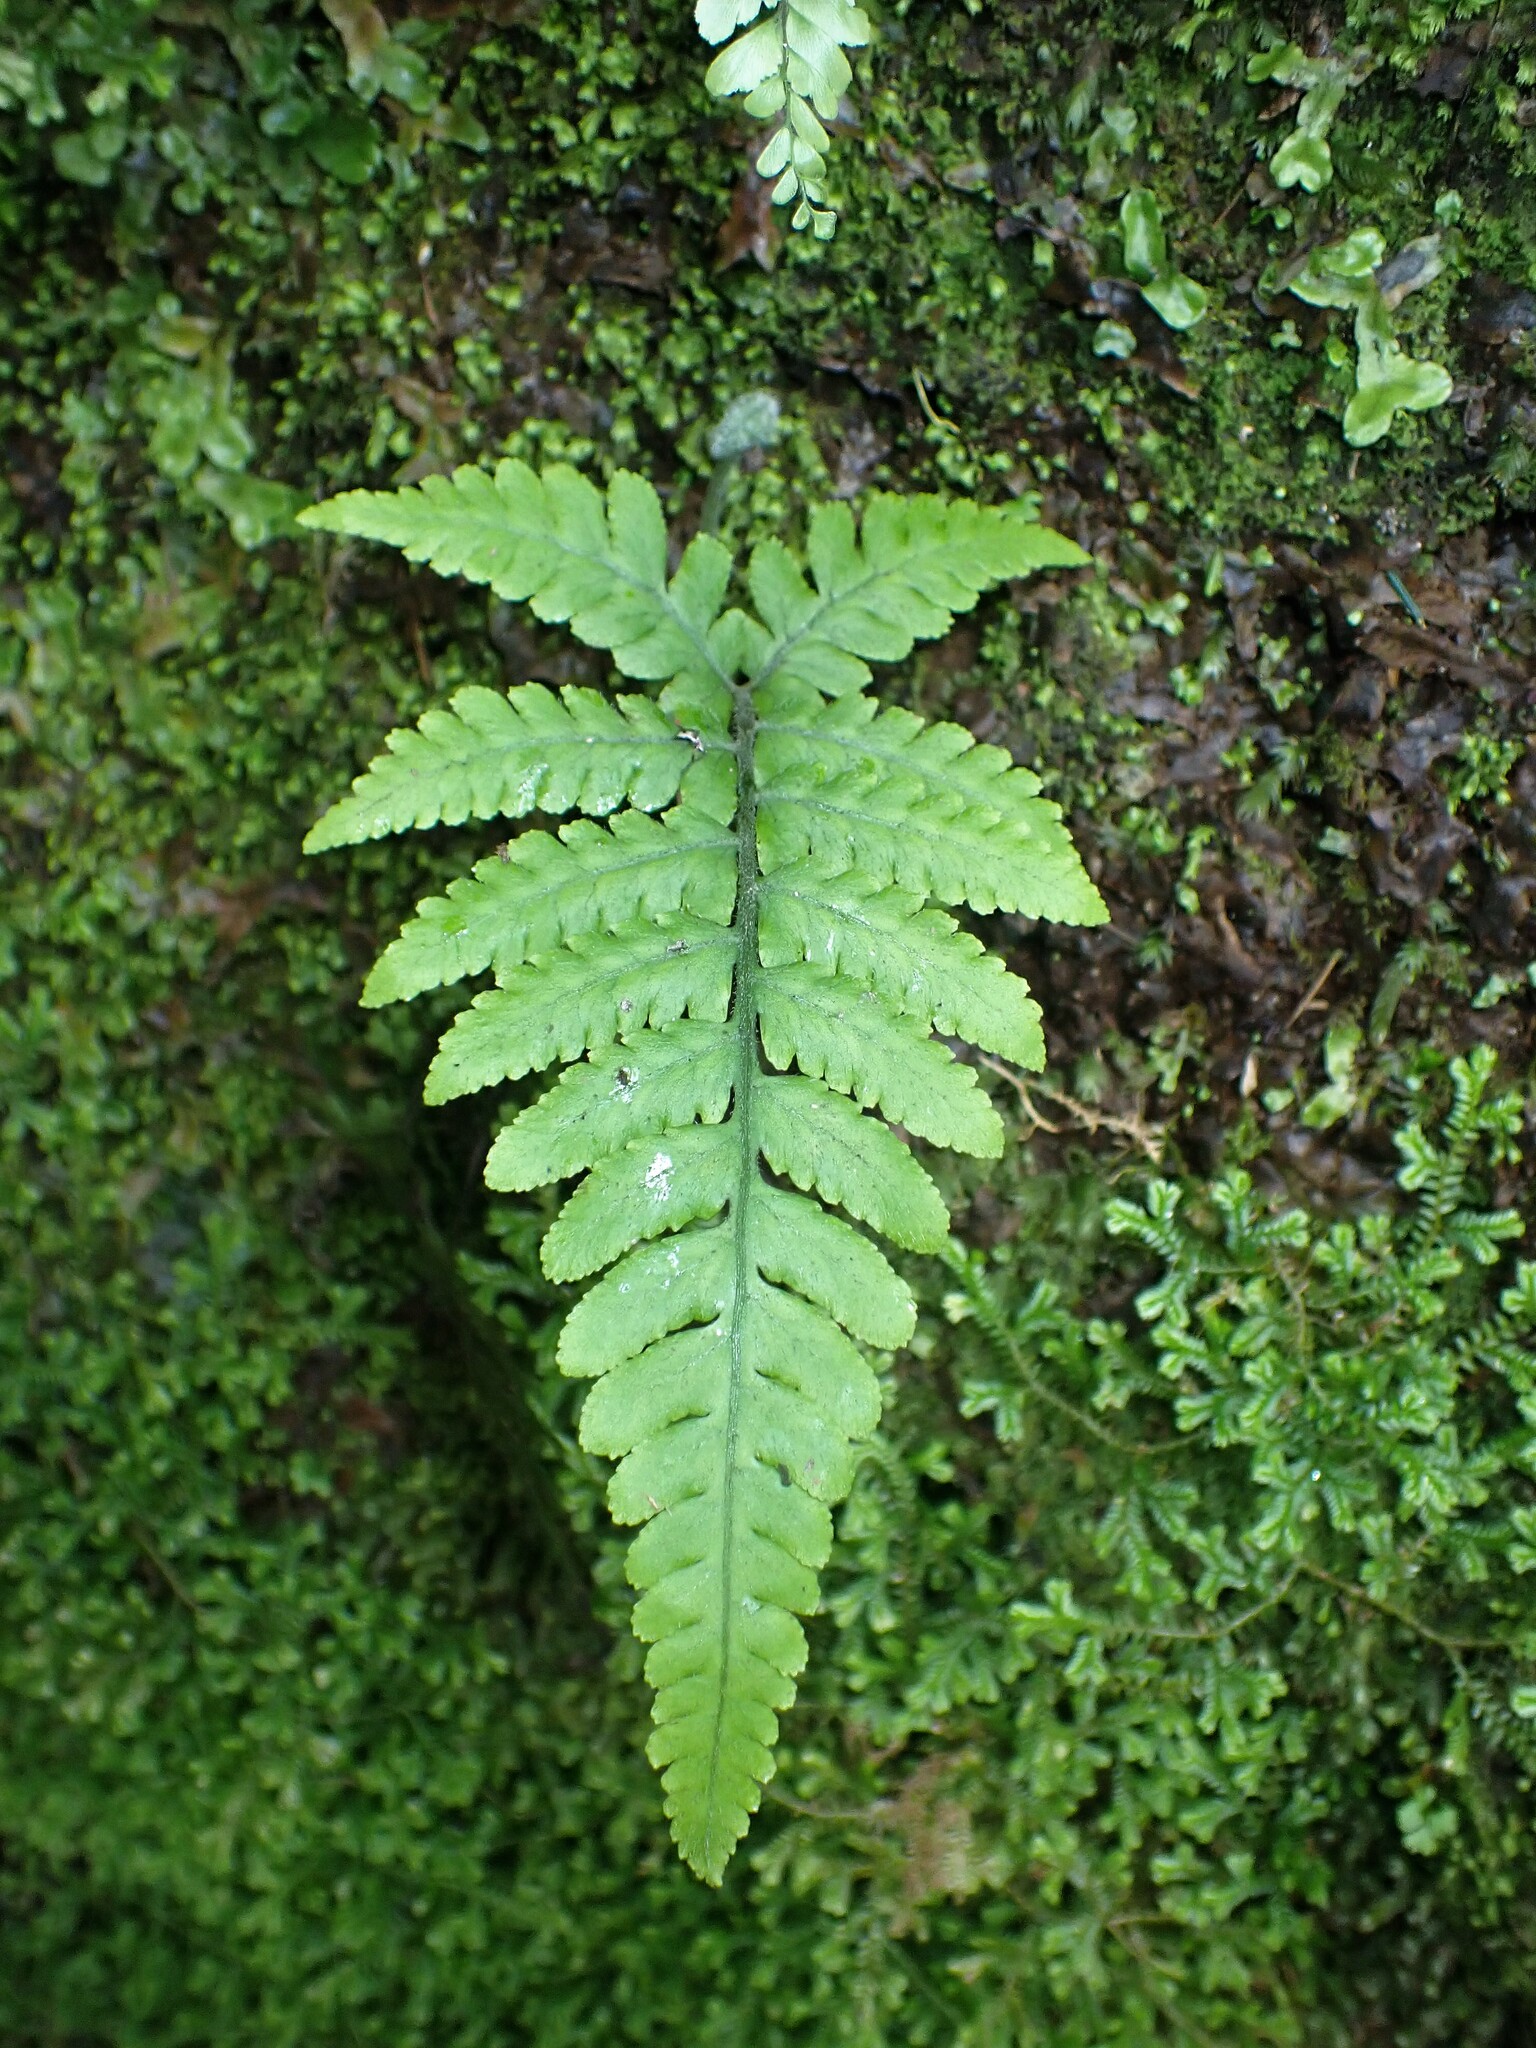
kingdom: Plantae
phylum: Tracheophyta
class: Polypodiopsida
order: Polypodiales
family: Athyriaceae
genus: Deparia
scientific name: Deparia petersenii
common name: Japanese false spleenwort
